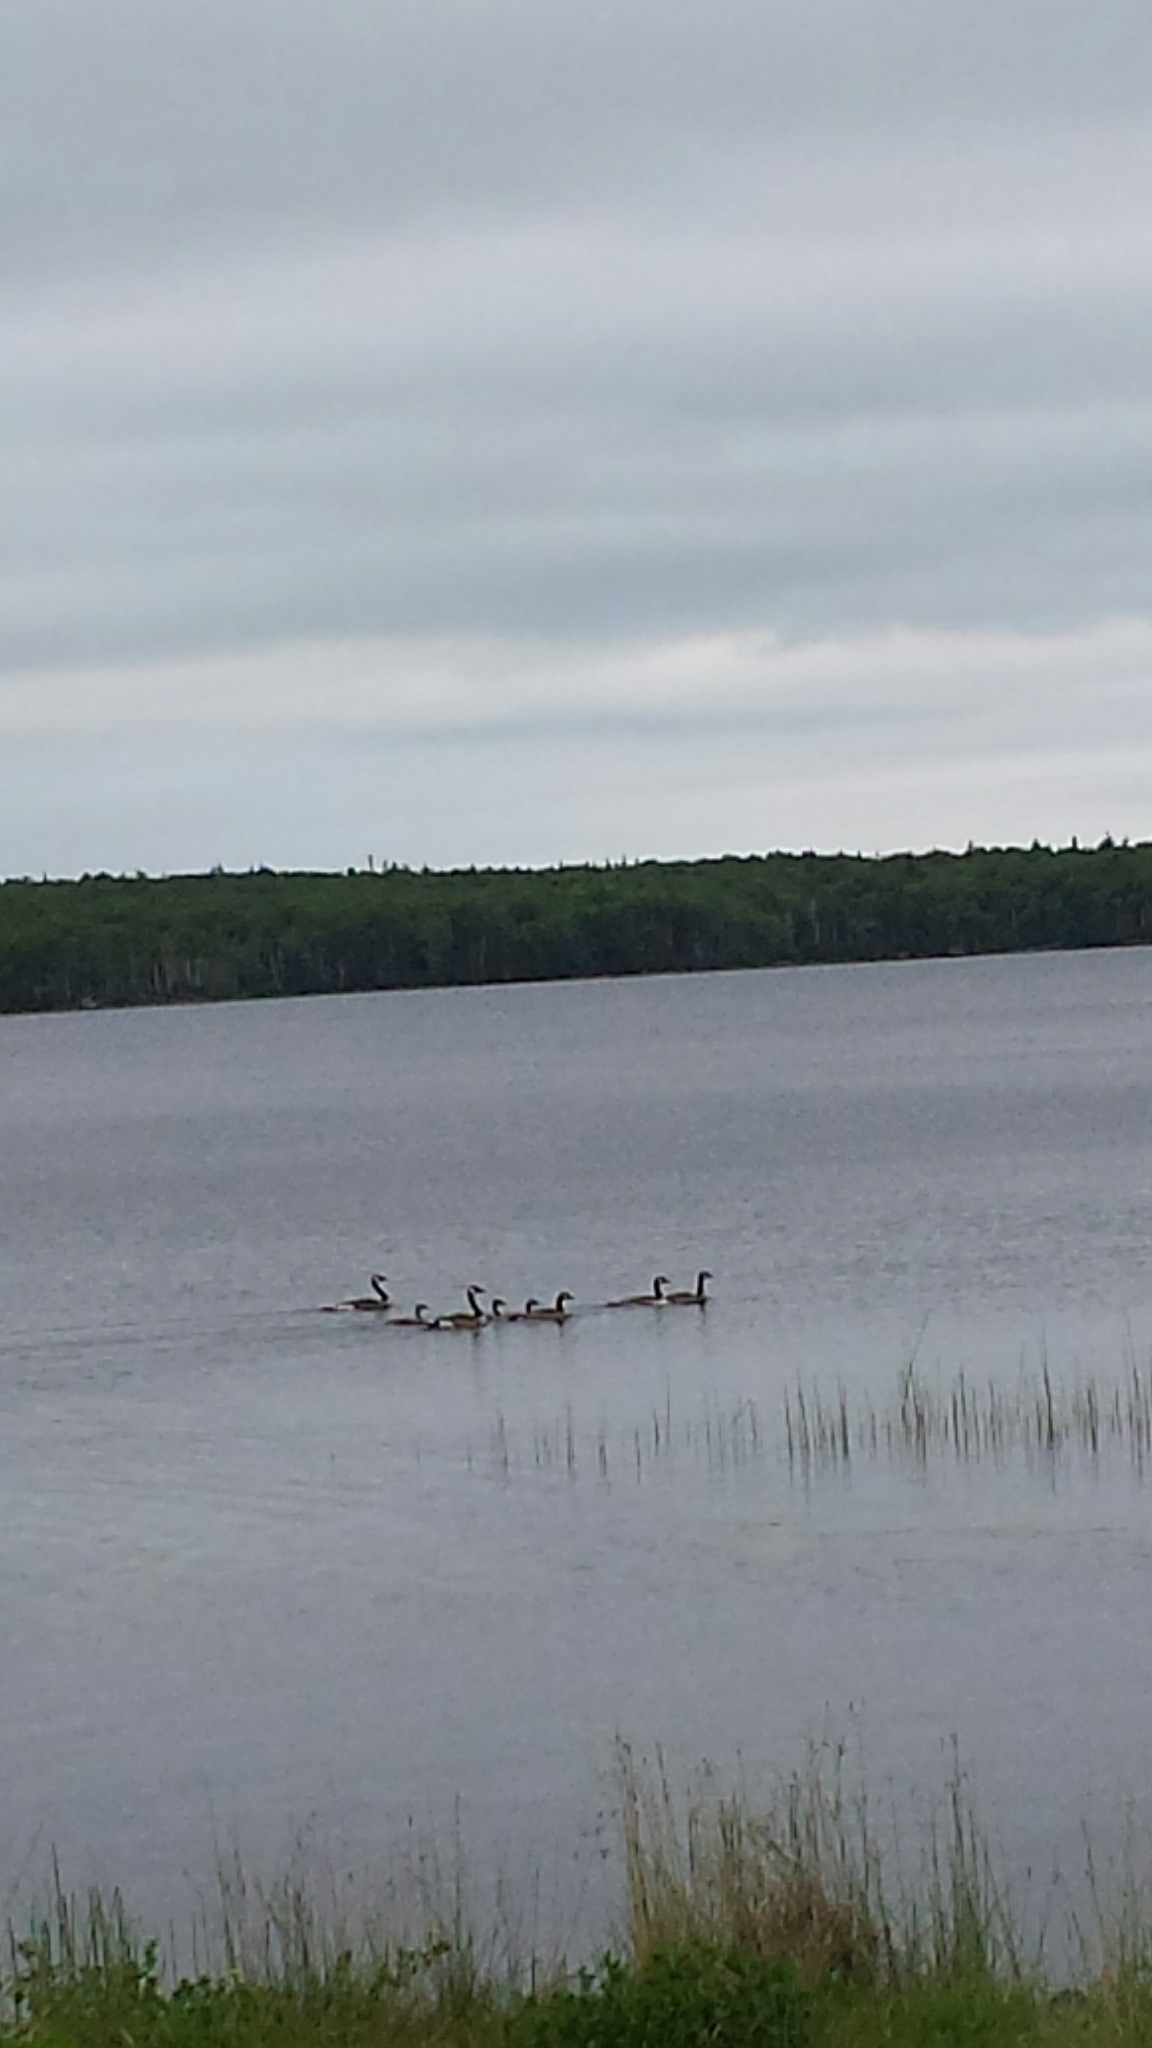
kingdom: Animalia
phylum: Chordata
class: Aves
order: Anseriformes
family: Anatidae
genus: Branta
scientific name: Branta canadensis
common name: Canada goose
